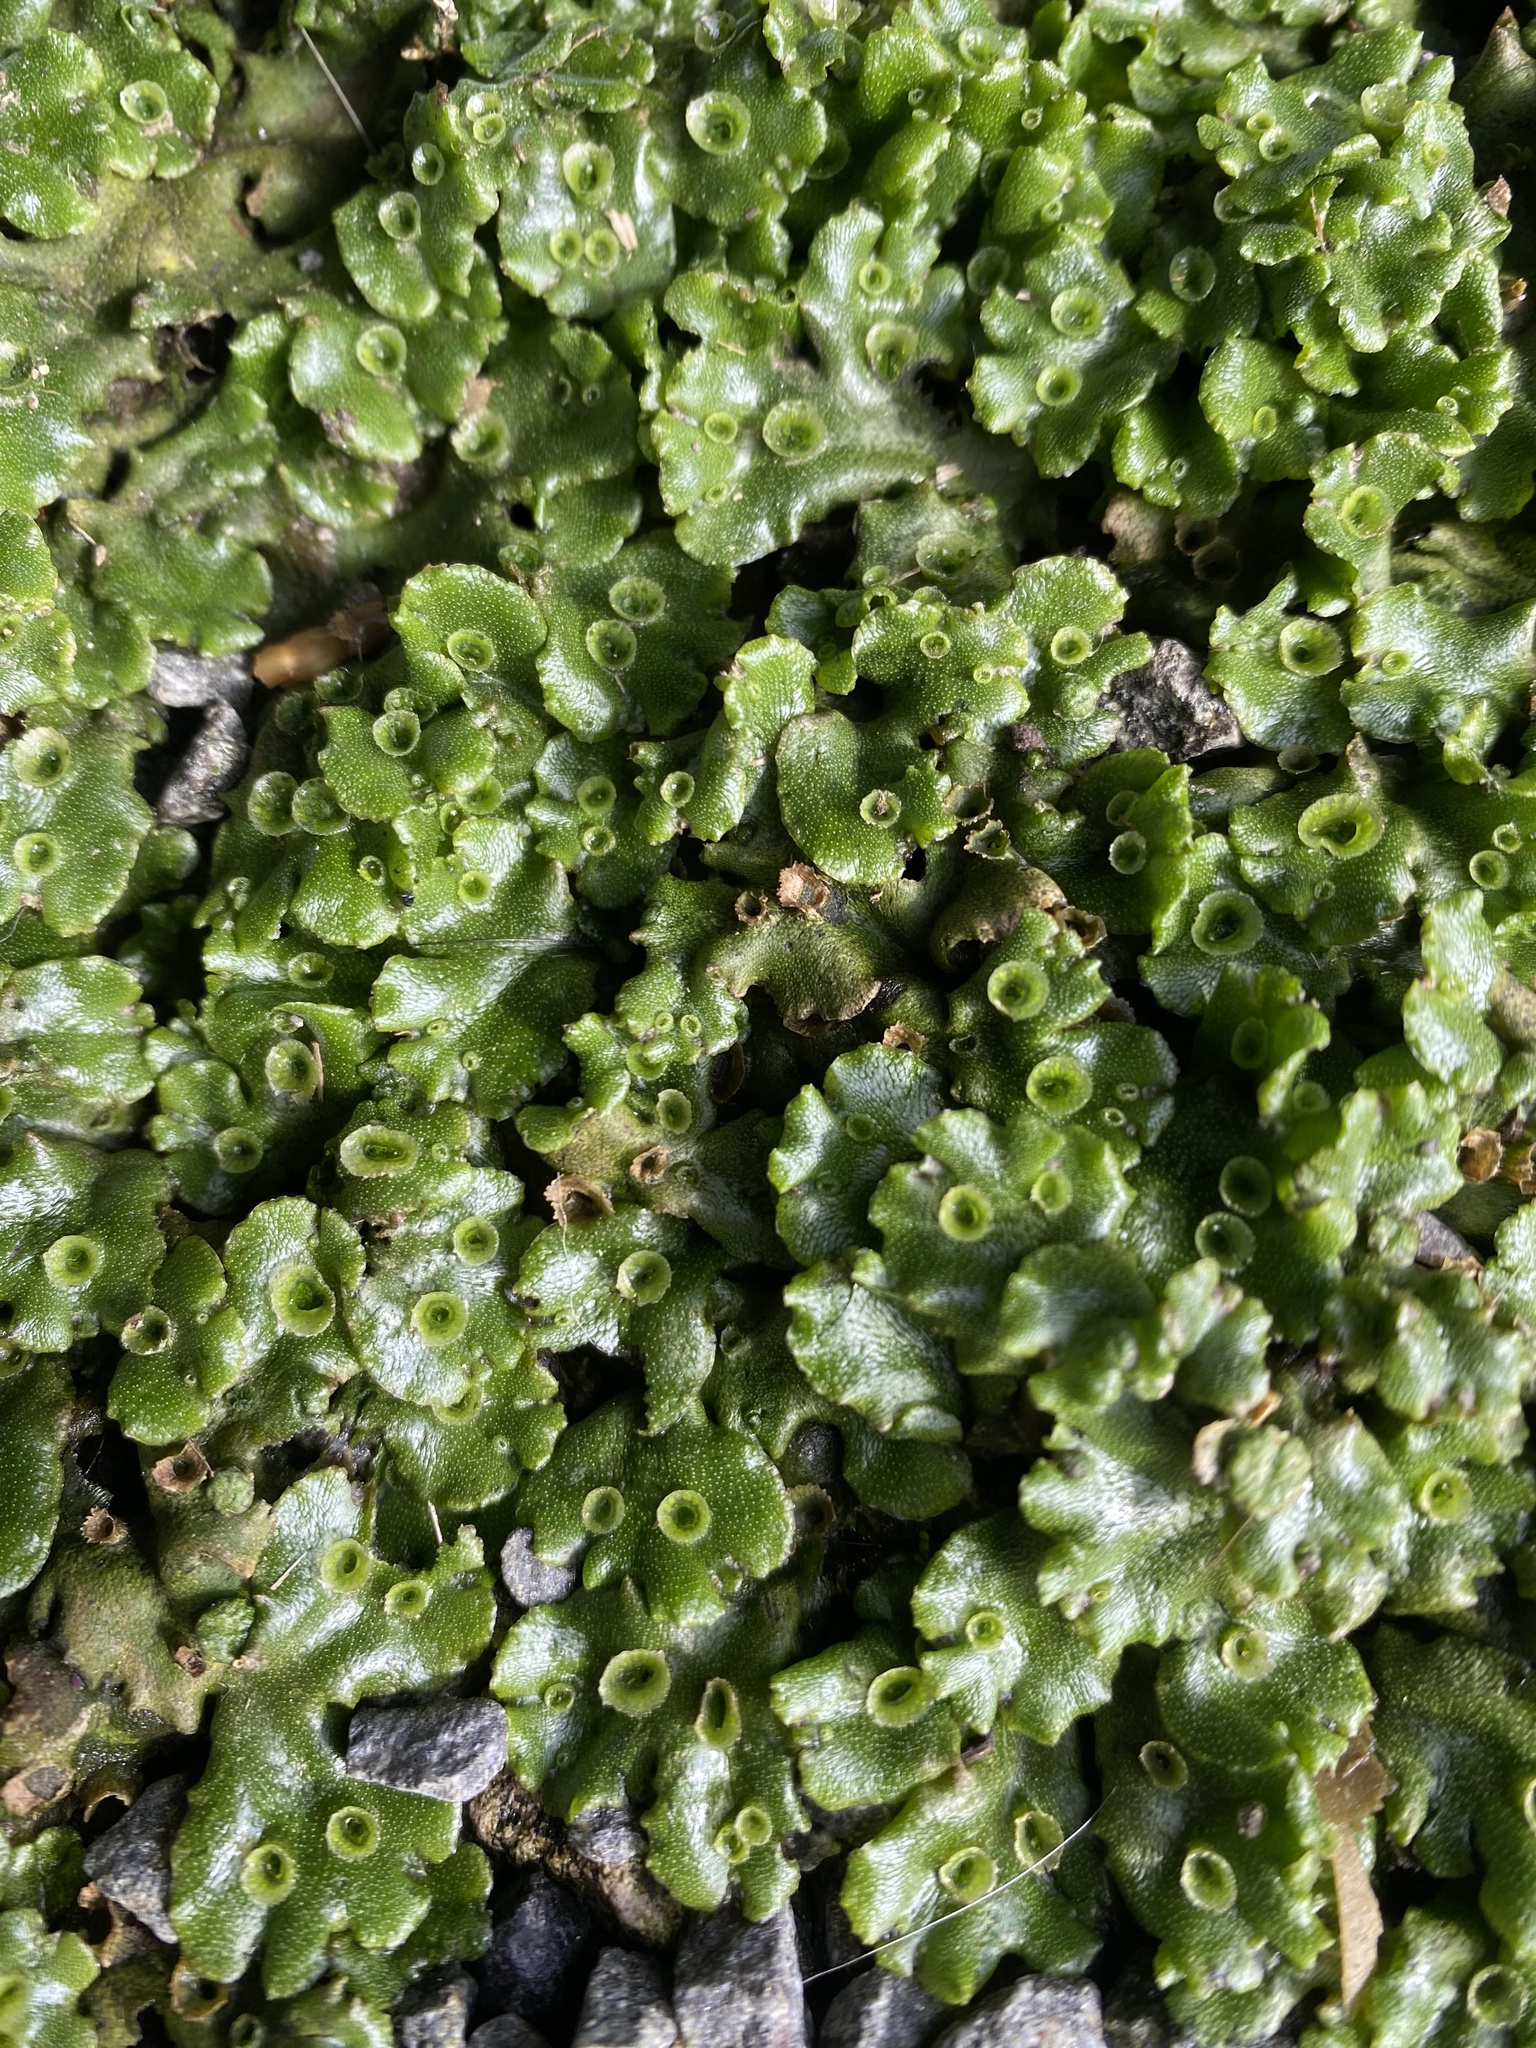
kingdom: Plantae
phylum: Marchantiophyta
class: Marchantiopsida
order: Marchantiales
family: Marchantiaceae
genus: Marchantia
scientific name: Marchantia polymorpha
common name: Common liverwort
